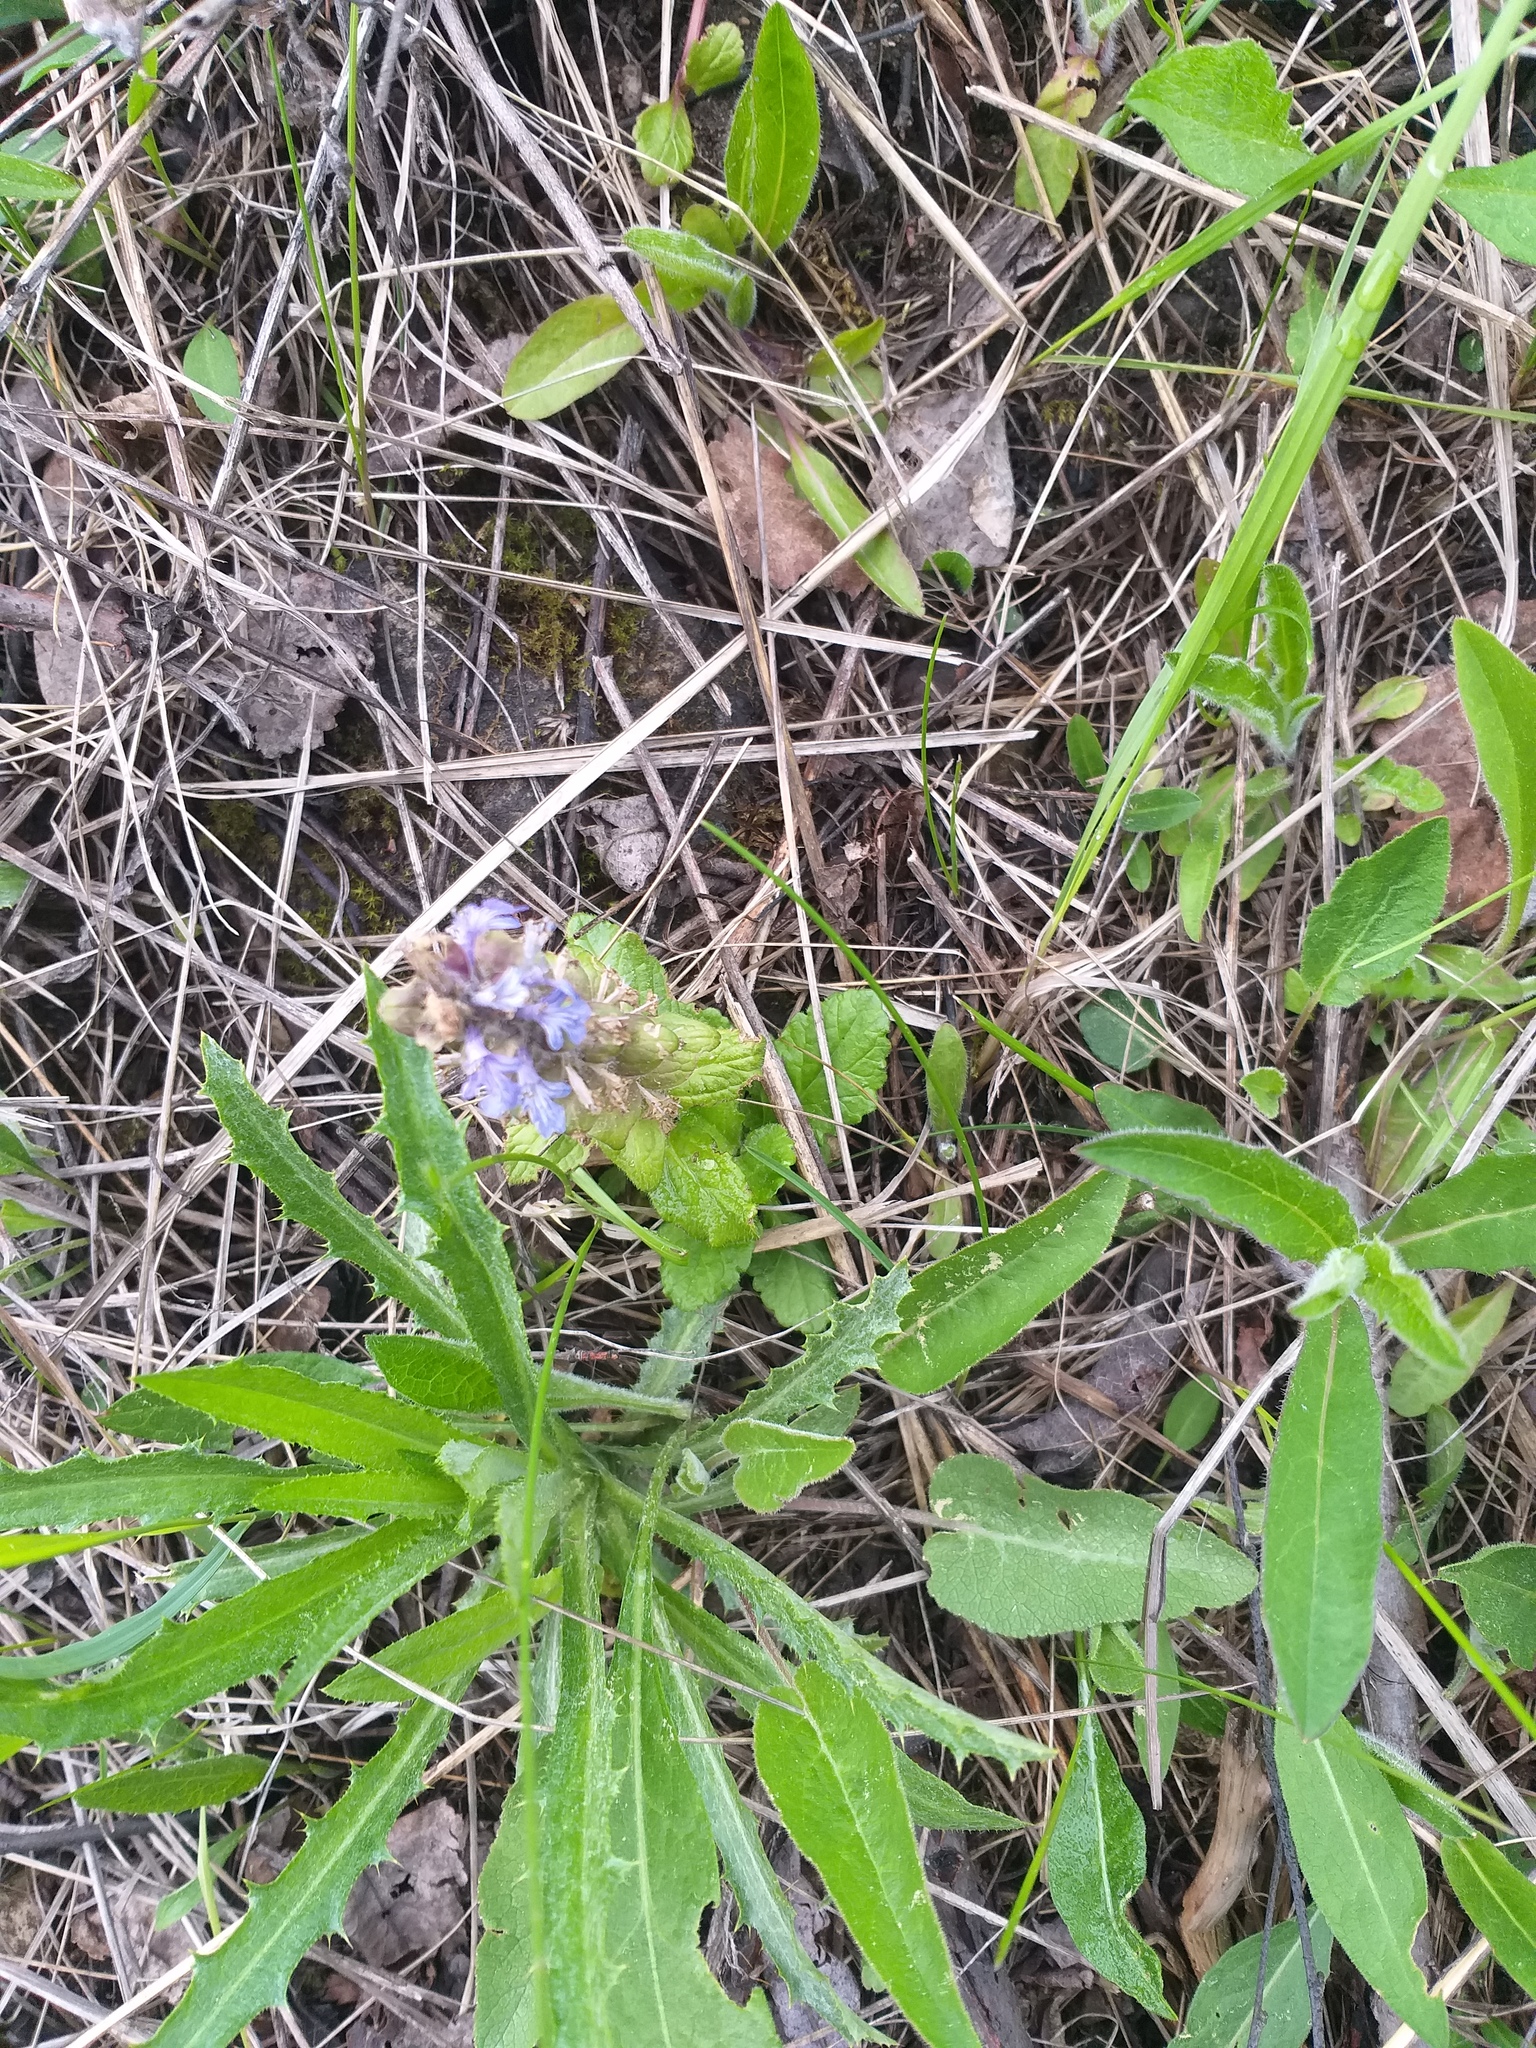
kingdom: Plantae
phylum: Tracheophyta
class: Magnoliopsida
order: Lamiales
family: Lamiaceae
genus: Ajuga
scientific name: Ajuga reptans
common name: Bugle
